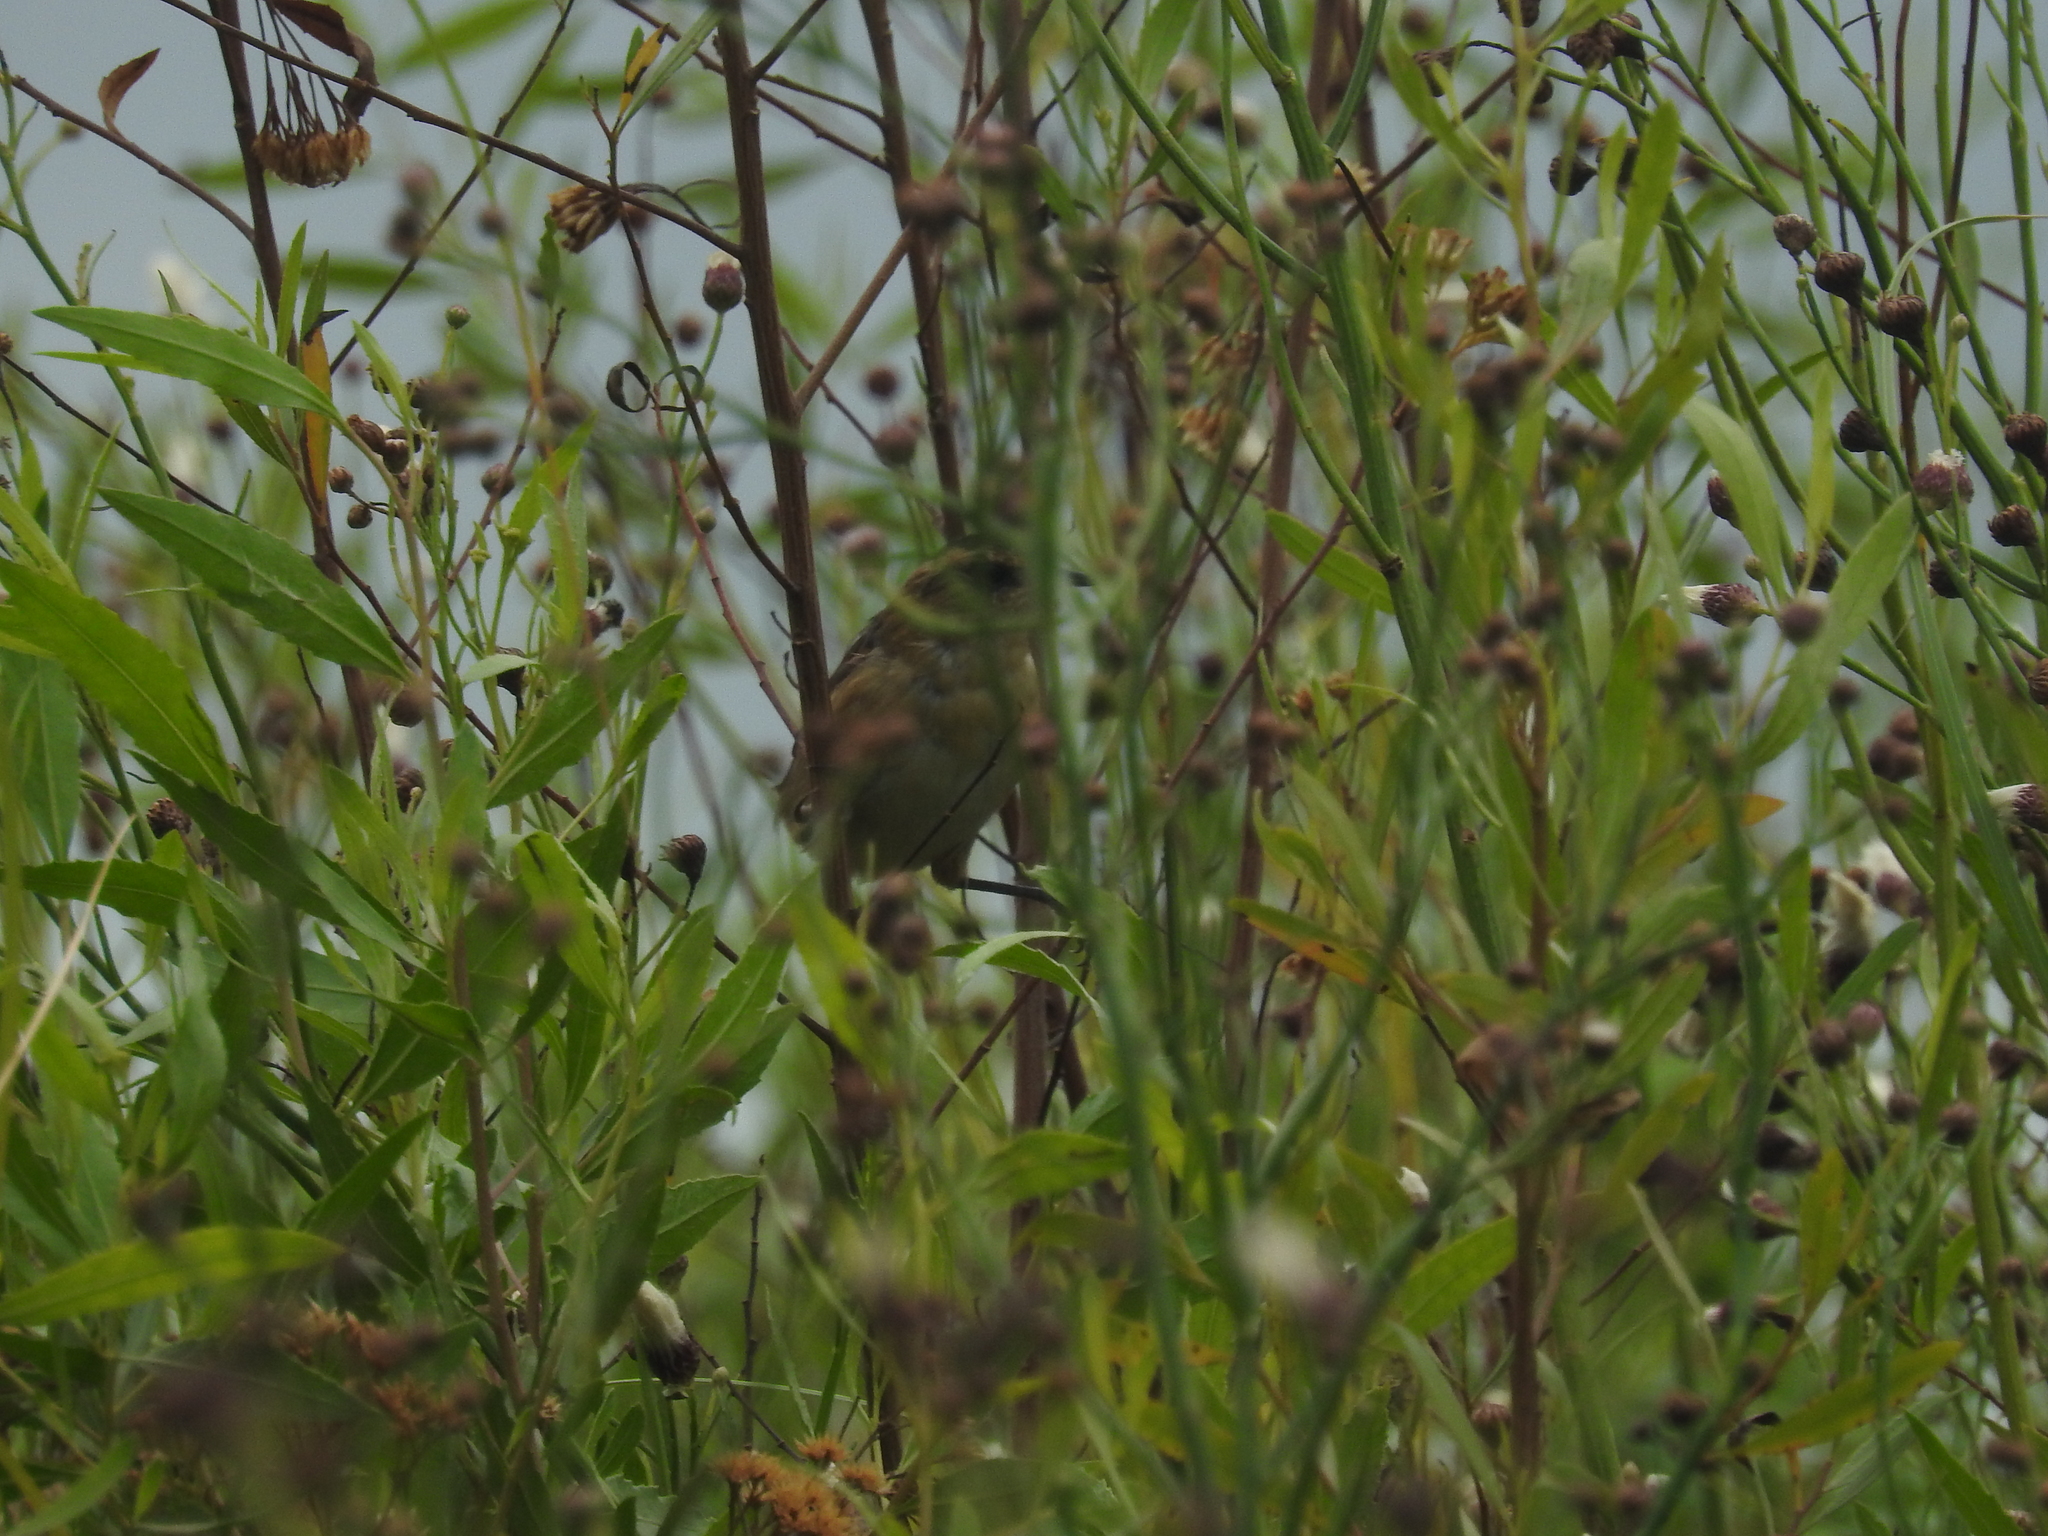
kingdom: Animalia
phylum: Chordata
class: Aves
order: Passeriformes
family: Furnariidae
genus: Phleocryptes
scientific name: Phleocryptes melanops
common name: Wren-like rushbird
